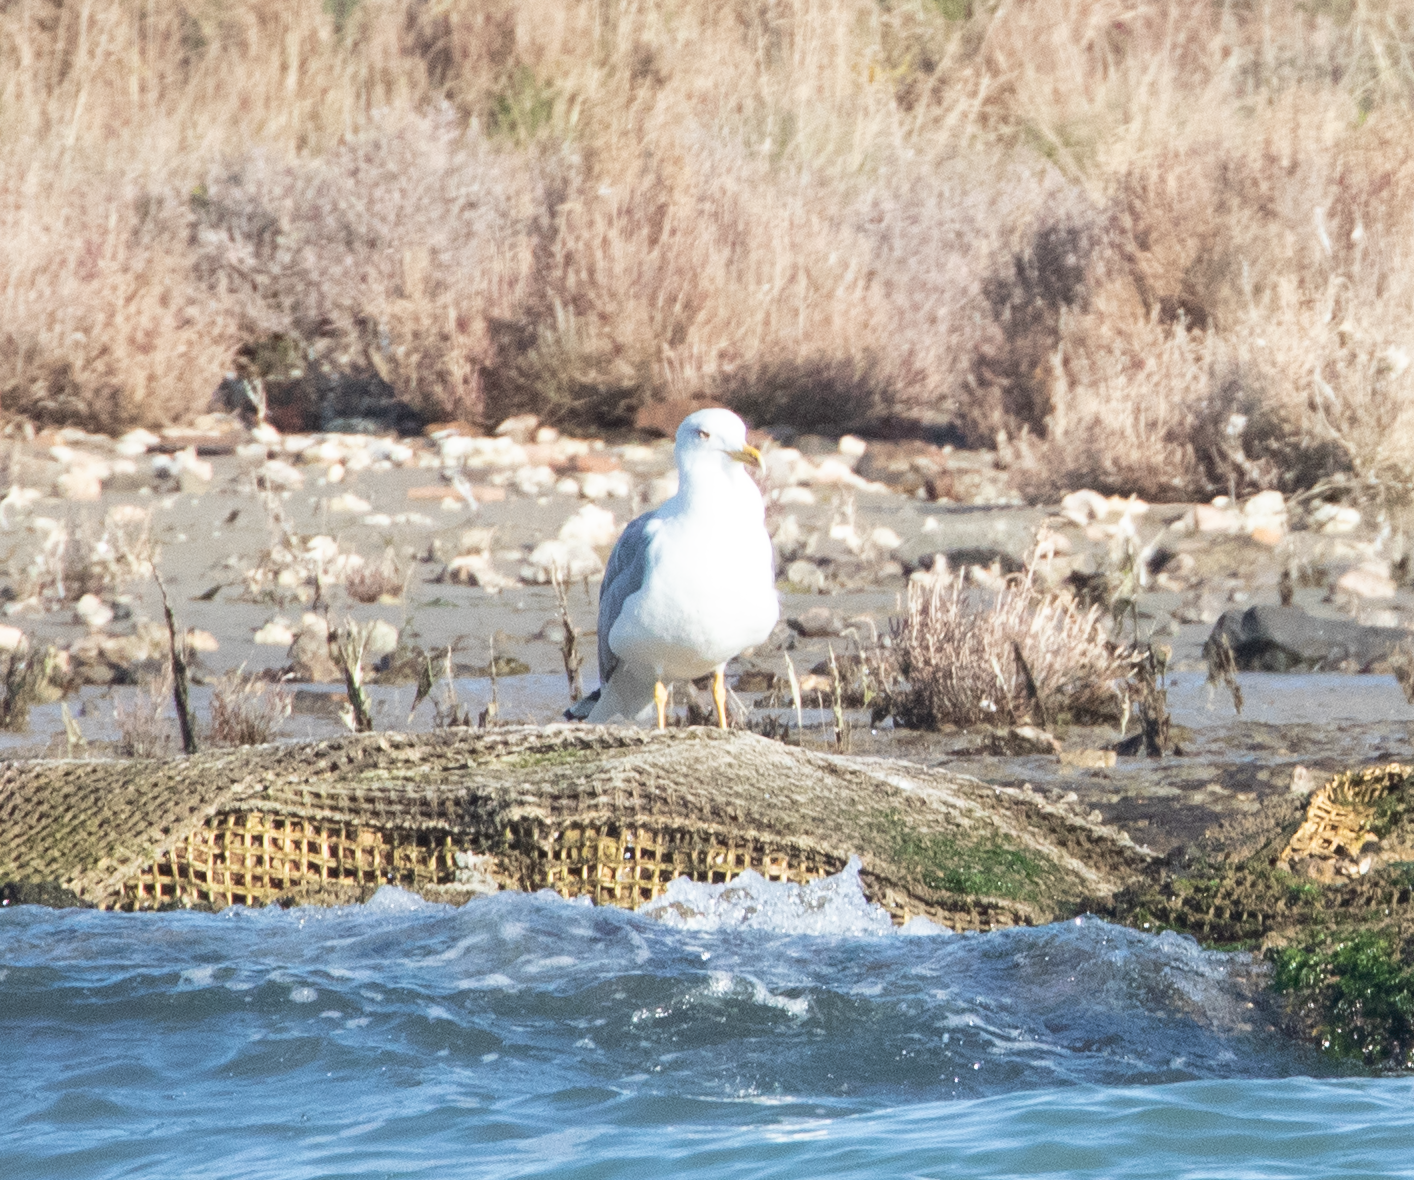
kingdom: Animalia
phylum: Chordata
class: Aves
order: Charadriiformes
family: Laridae
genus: Larus
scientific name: Larus michahellis
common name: Yellow-legged gull
